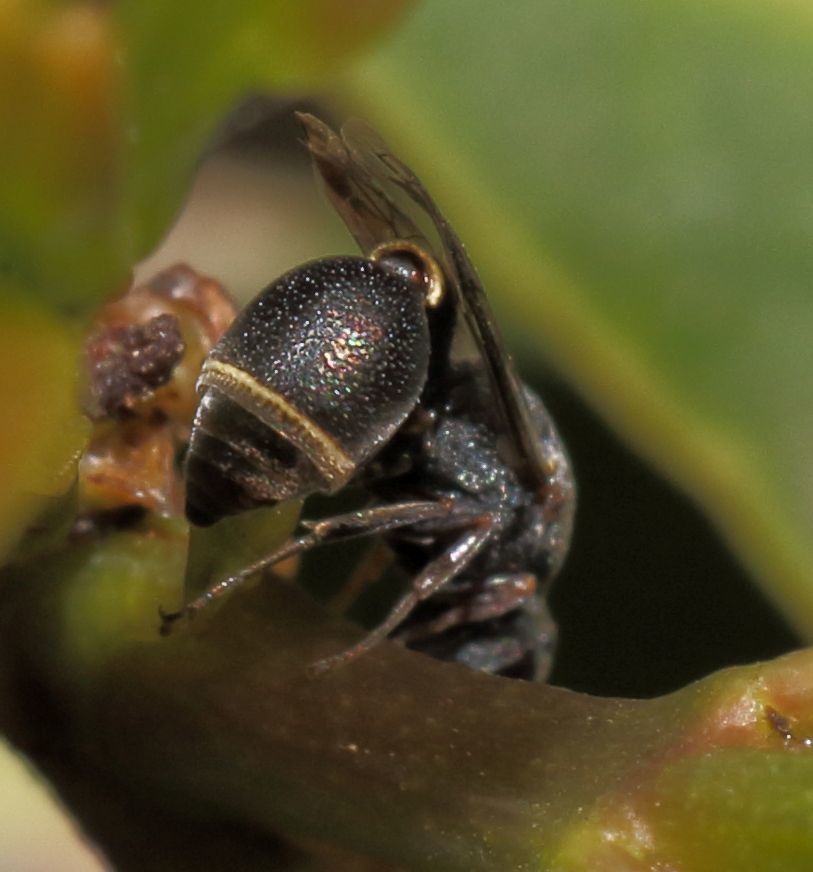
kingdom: Animalia
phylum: Arthropoda
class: Insecta
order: Hymenoptera
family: Eumenidae
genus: Cyrtolabulus
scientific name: Cyrtolabulus
